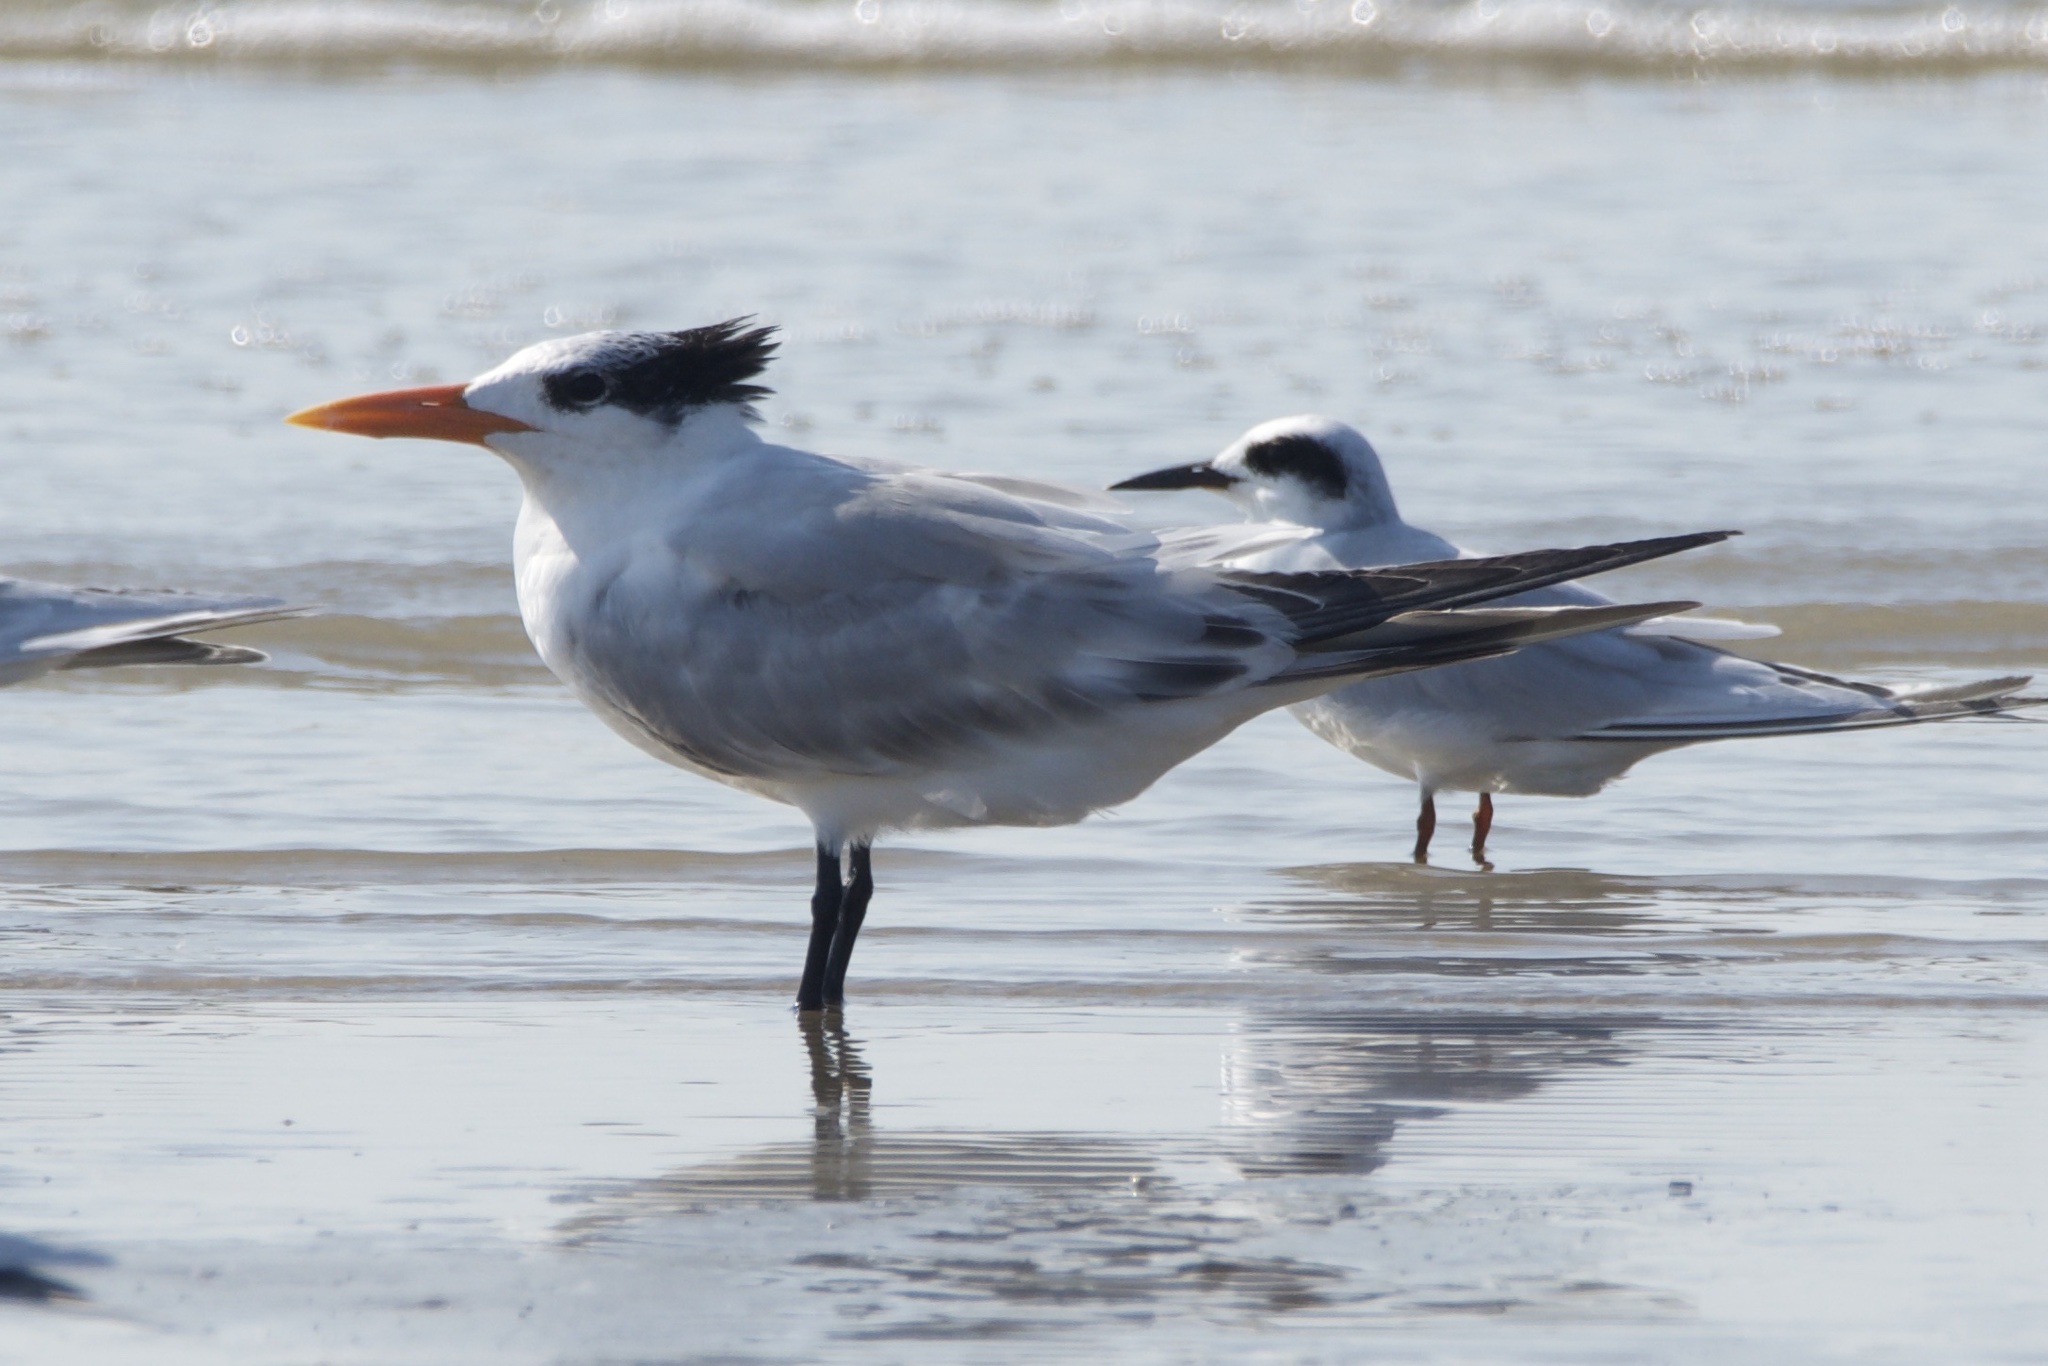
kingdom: Animalia
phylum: Chordata
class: Aves
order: Charadriiformes
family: Laridae
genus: Thalasseus
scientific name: Thalasseus maximus
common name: Royal tern
